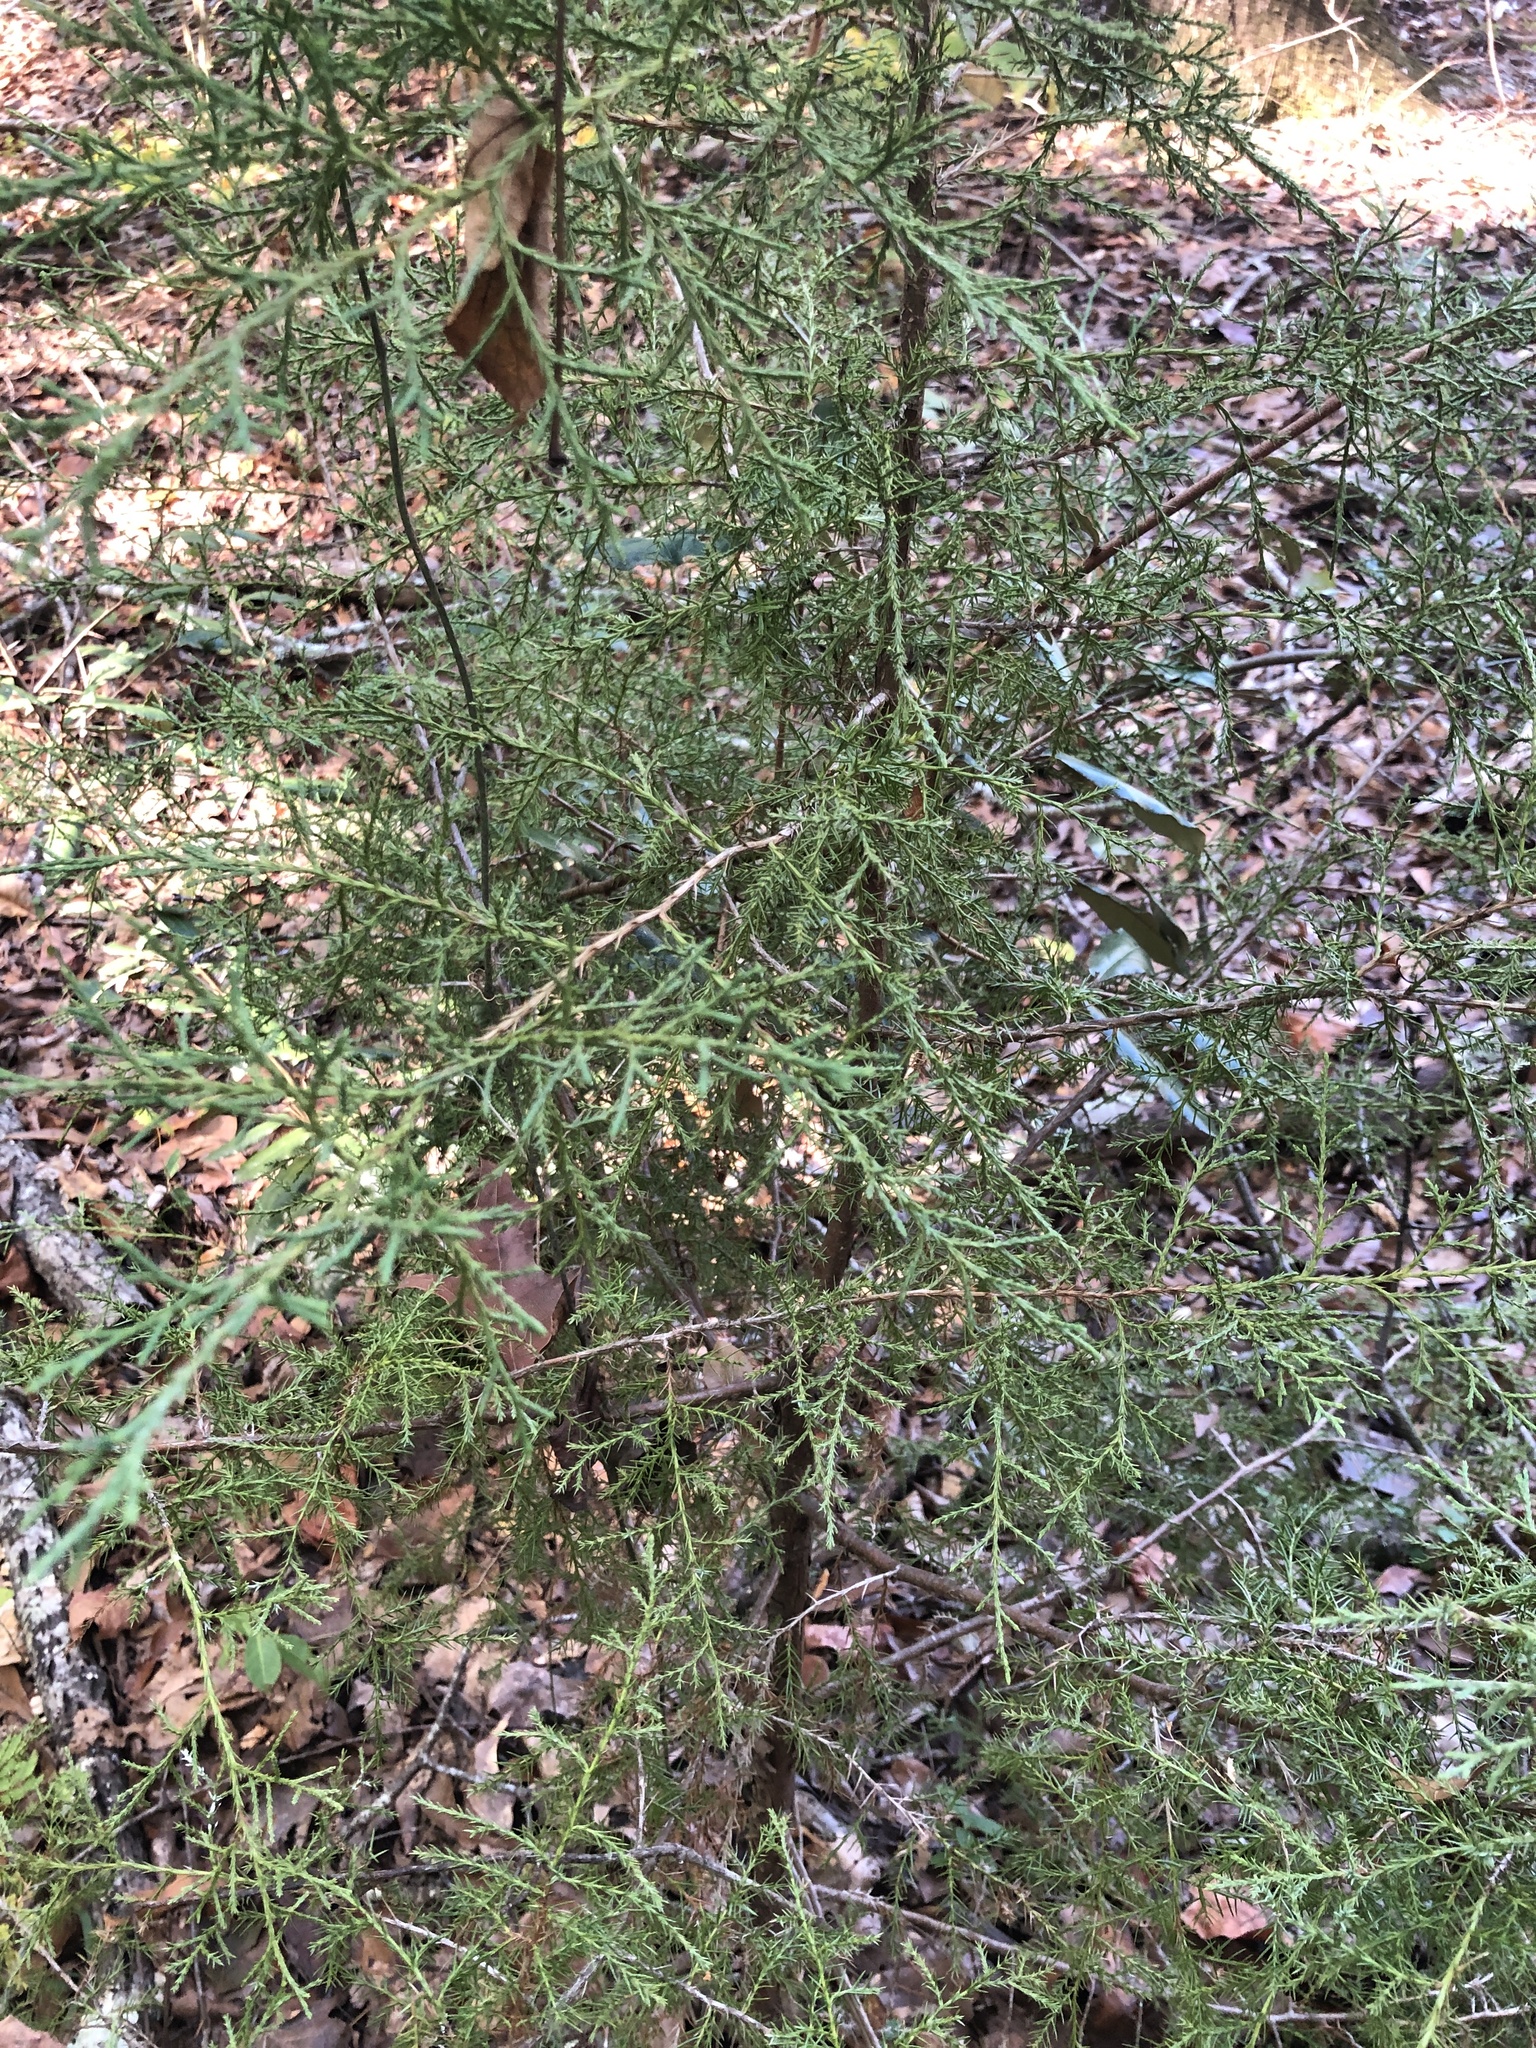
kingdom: Plantae
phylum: Tracheophyta
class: Pinopsida
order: Pinales
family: Cupressaceae
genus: Juniperus
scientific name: Juniperus virginiana
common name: Red juniper
